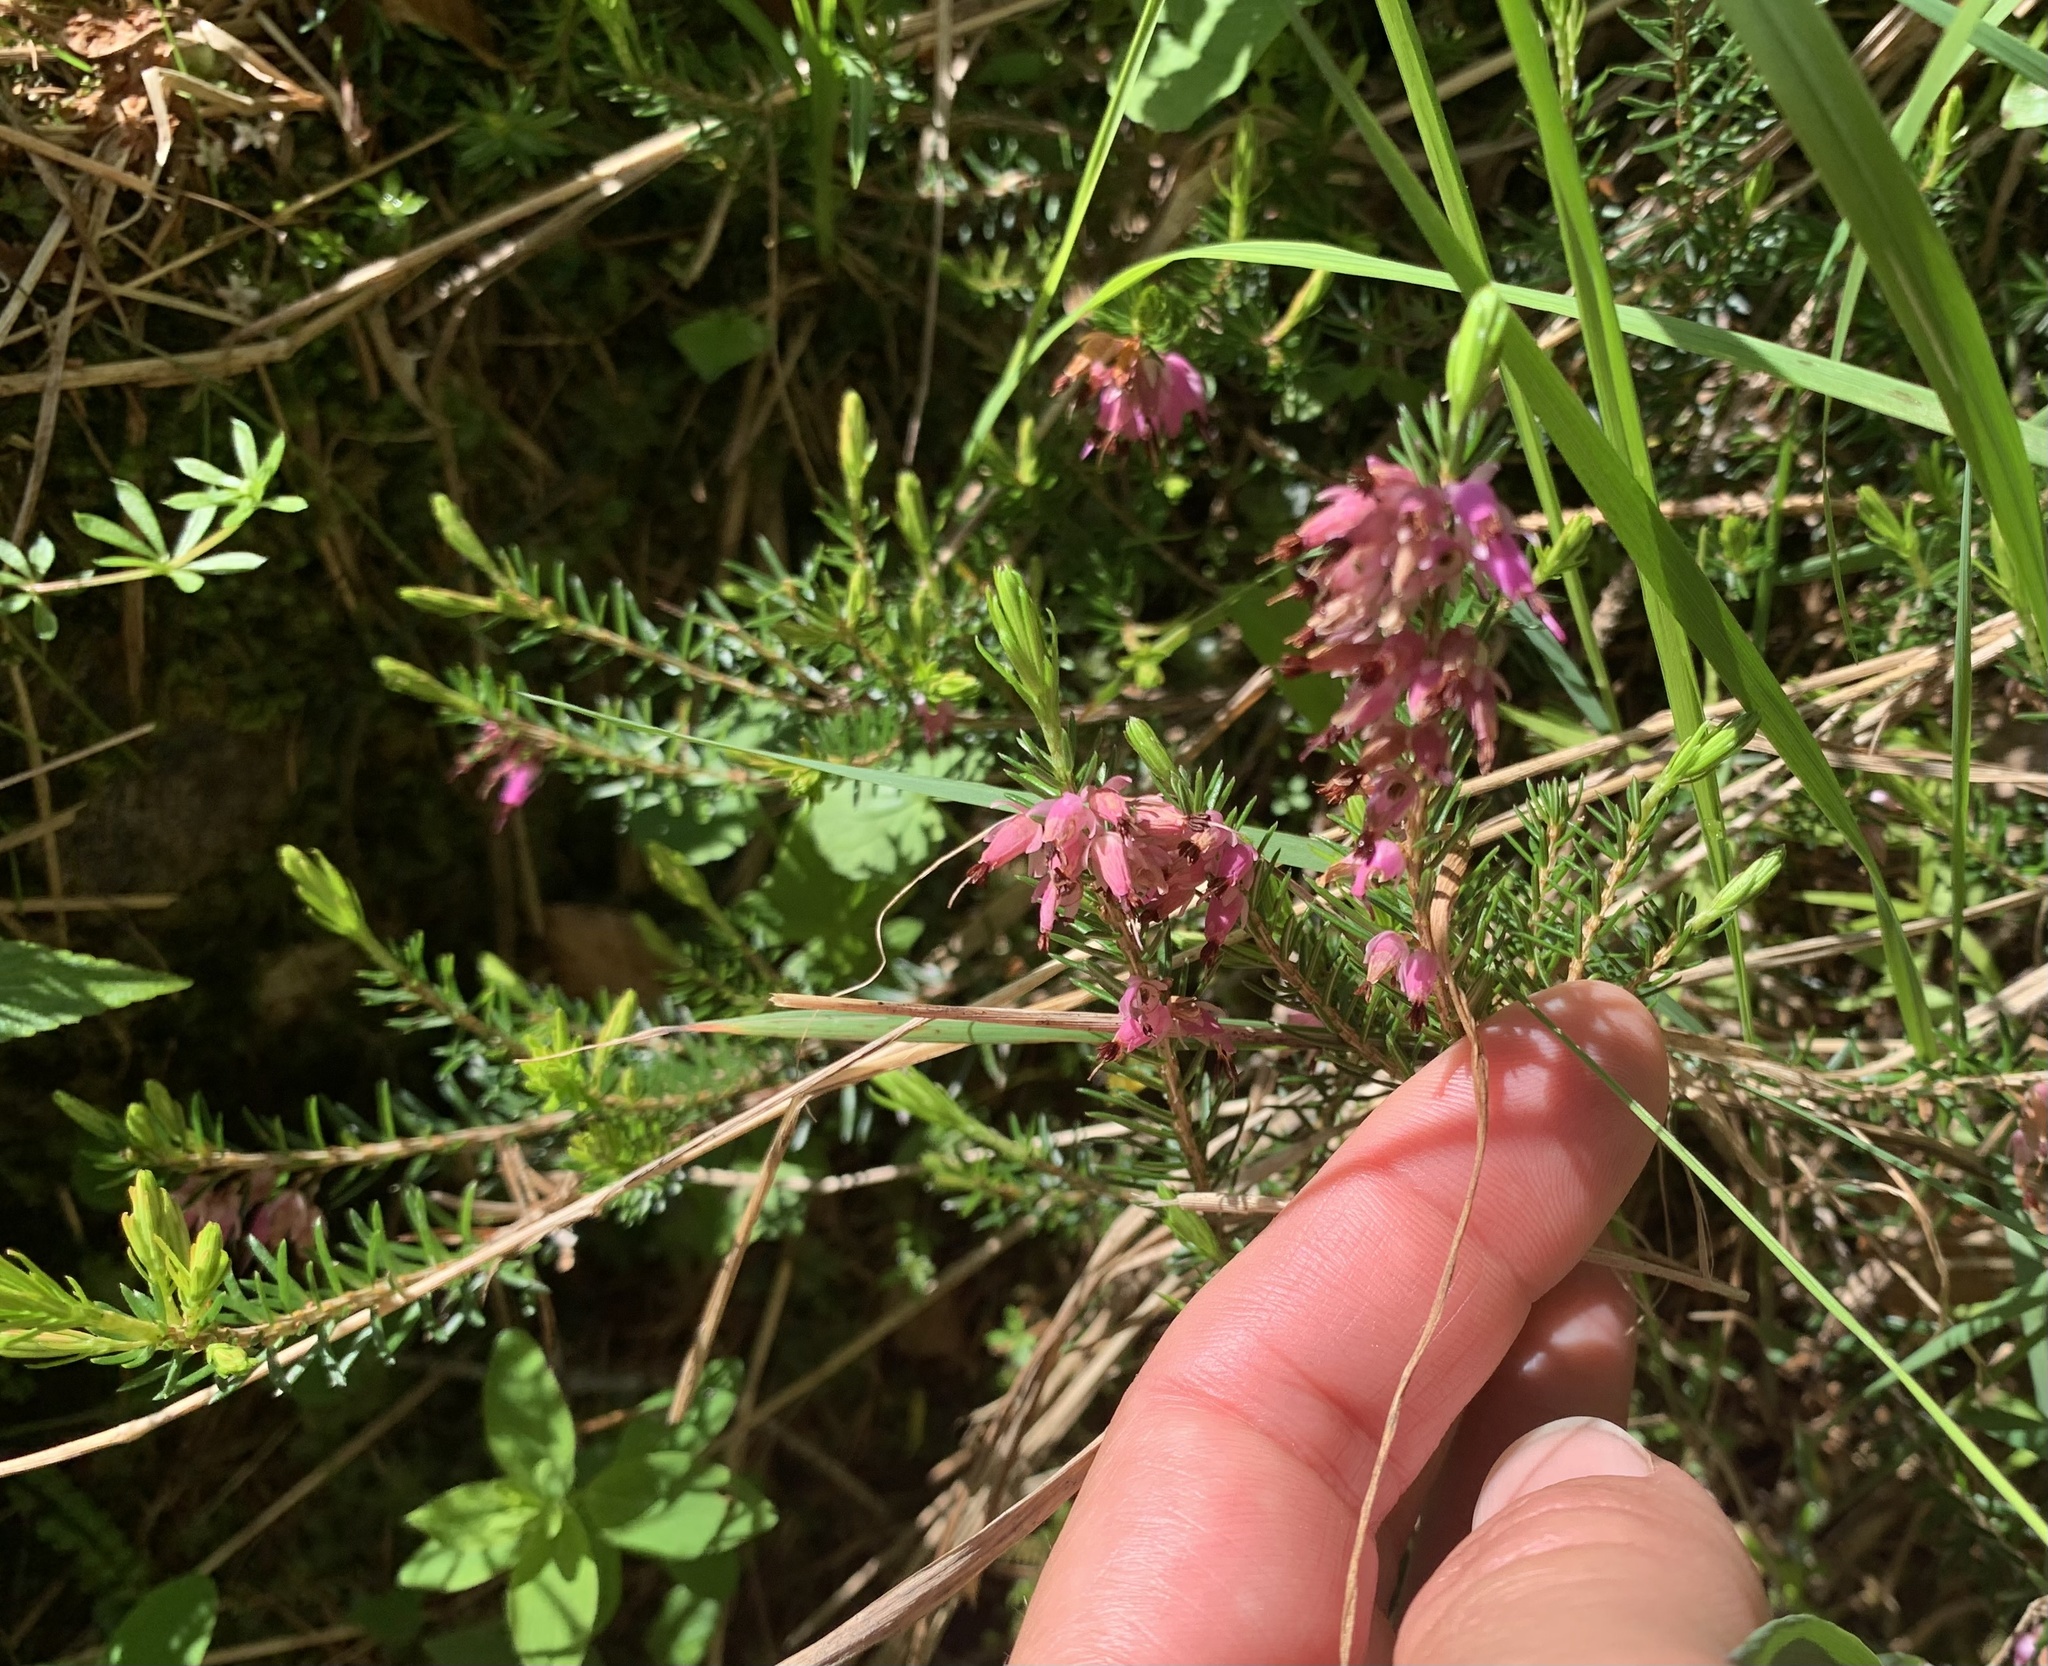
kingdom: Plantae
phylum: Tracheophyta
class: Magnoliopsida
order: Ericales
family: Ericaceae
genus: Erica
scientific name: Erica carnea
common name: Winter heath
